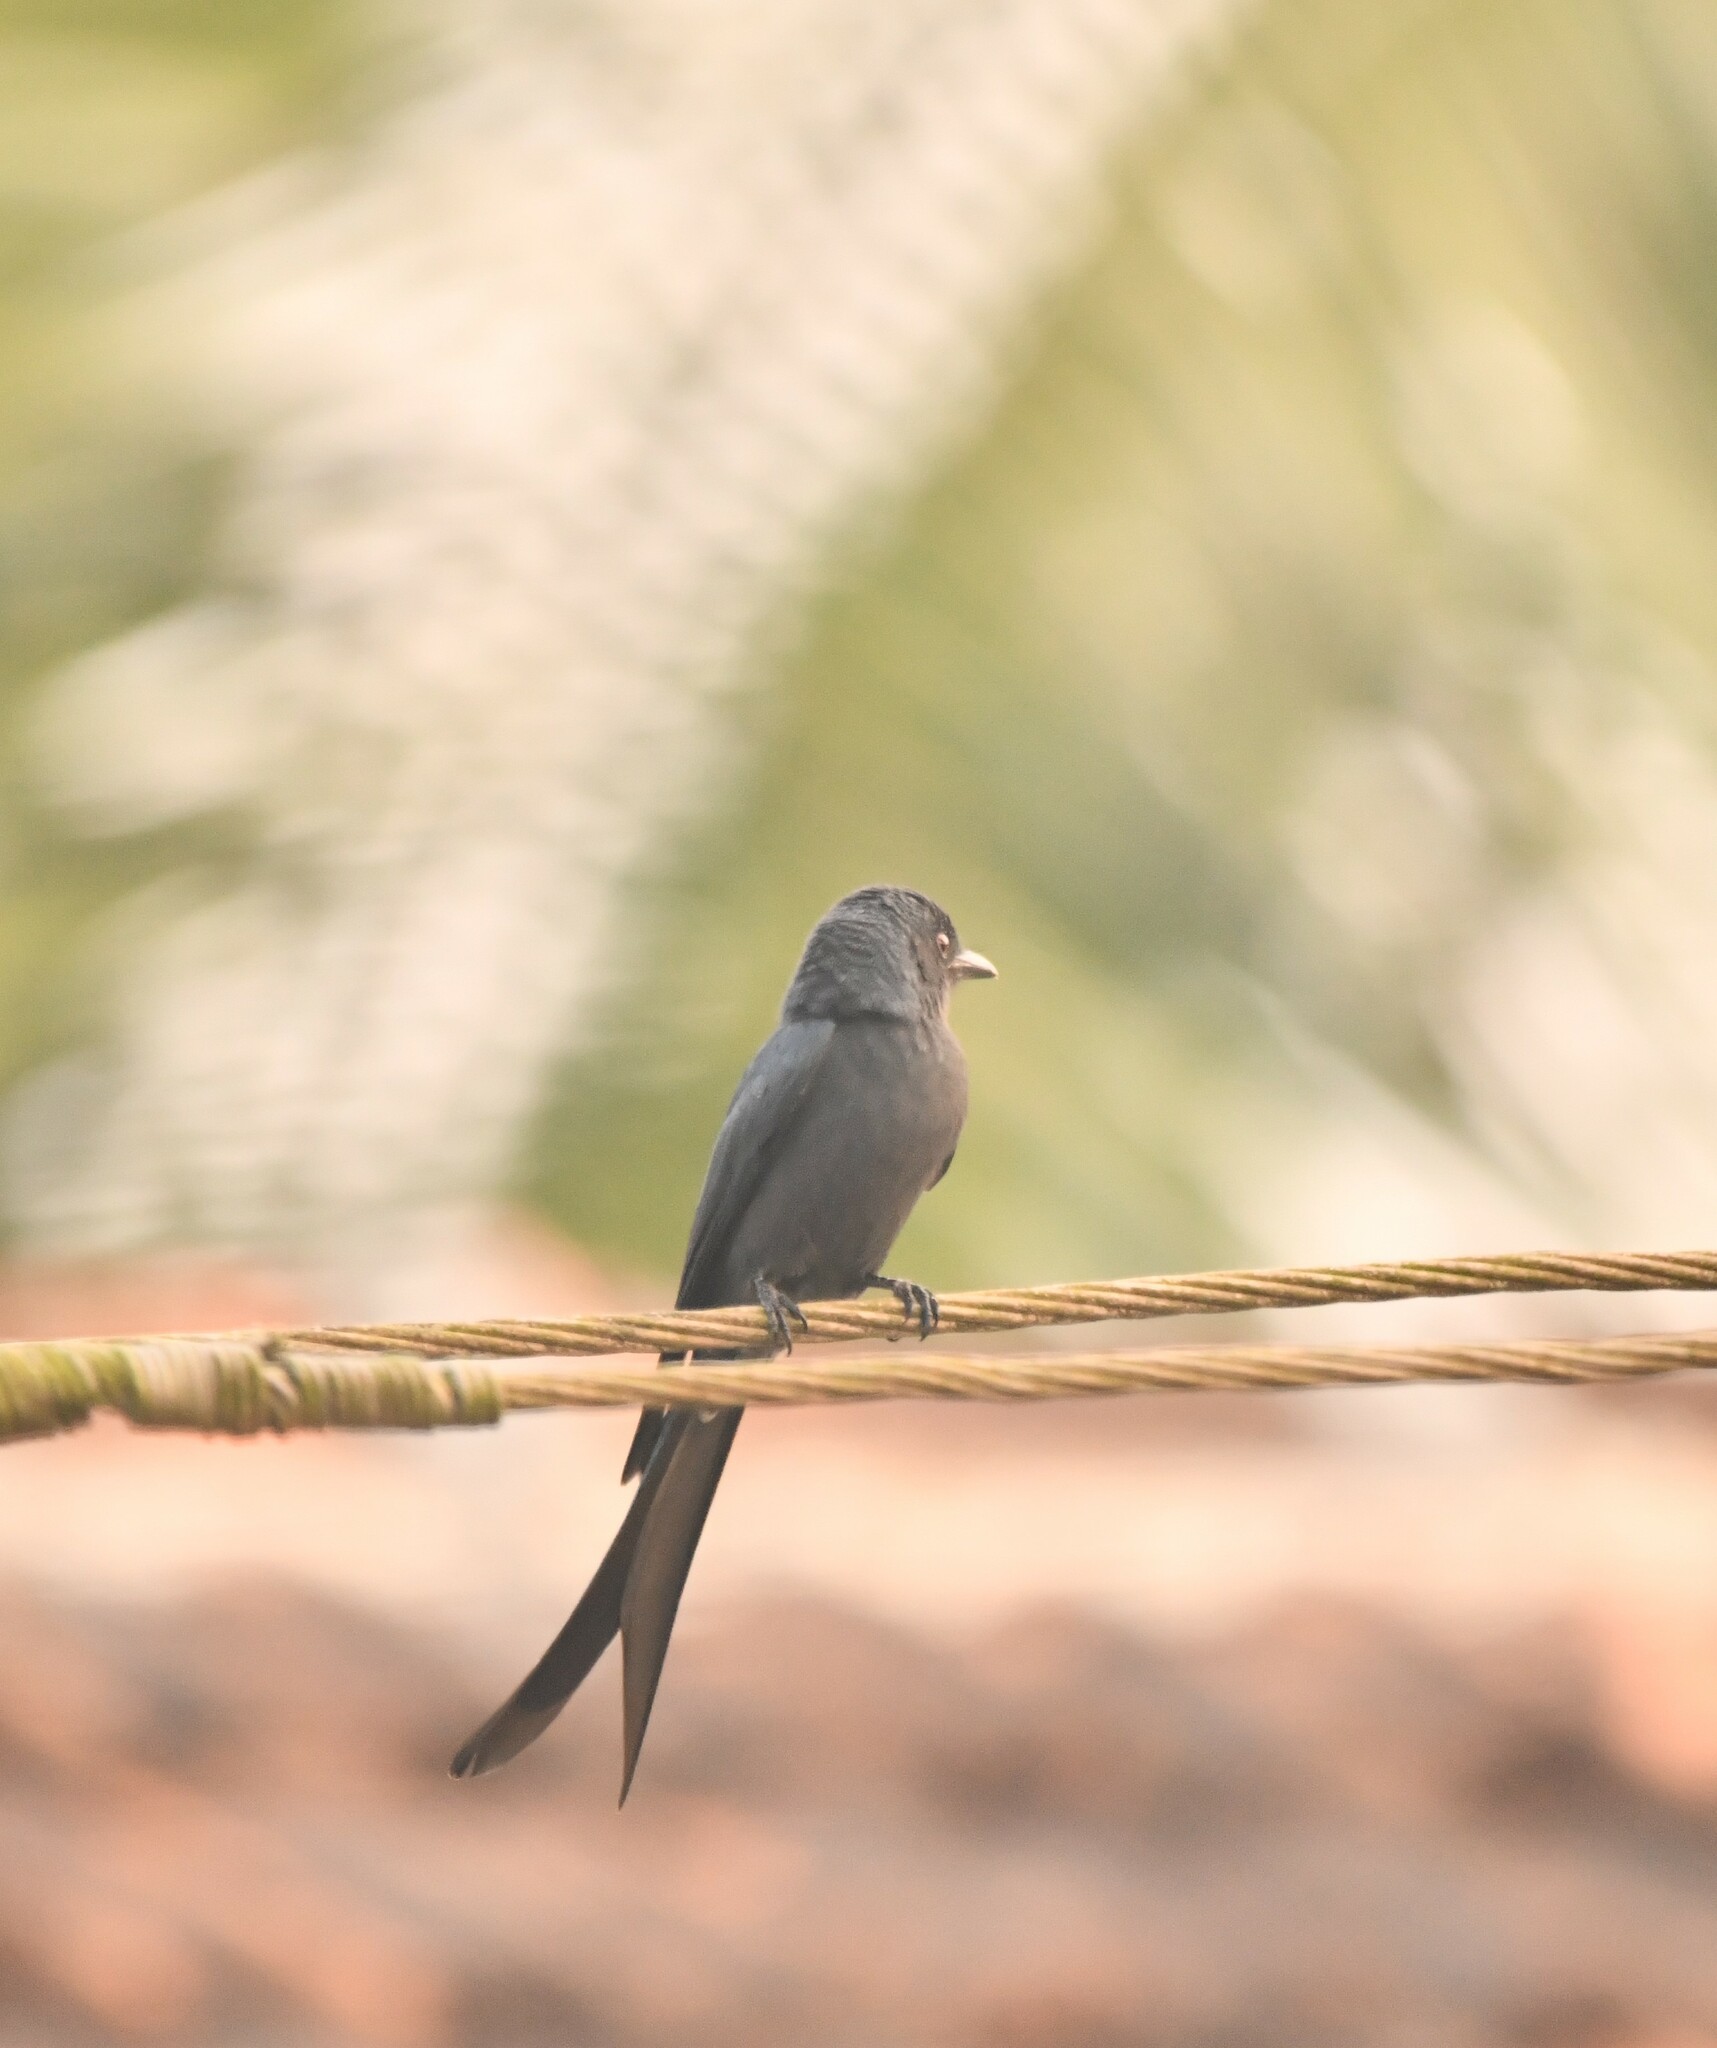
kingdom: Animalia
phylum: Chordata
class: Aves
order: Passeriformes
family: Dicruridae
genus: Dicrurus
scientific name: Dicrurus leucophaeus
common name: Ashy drongo
